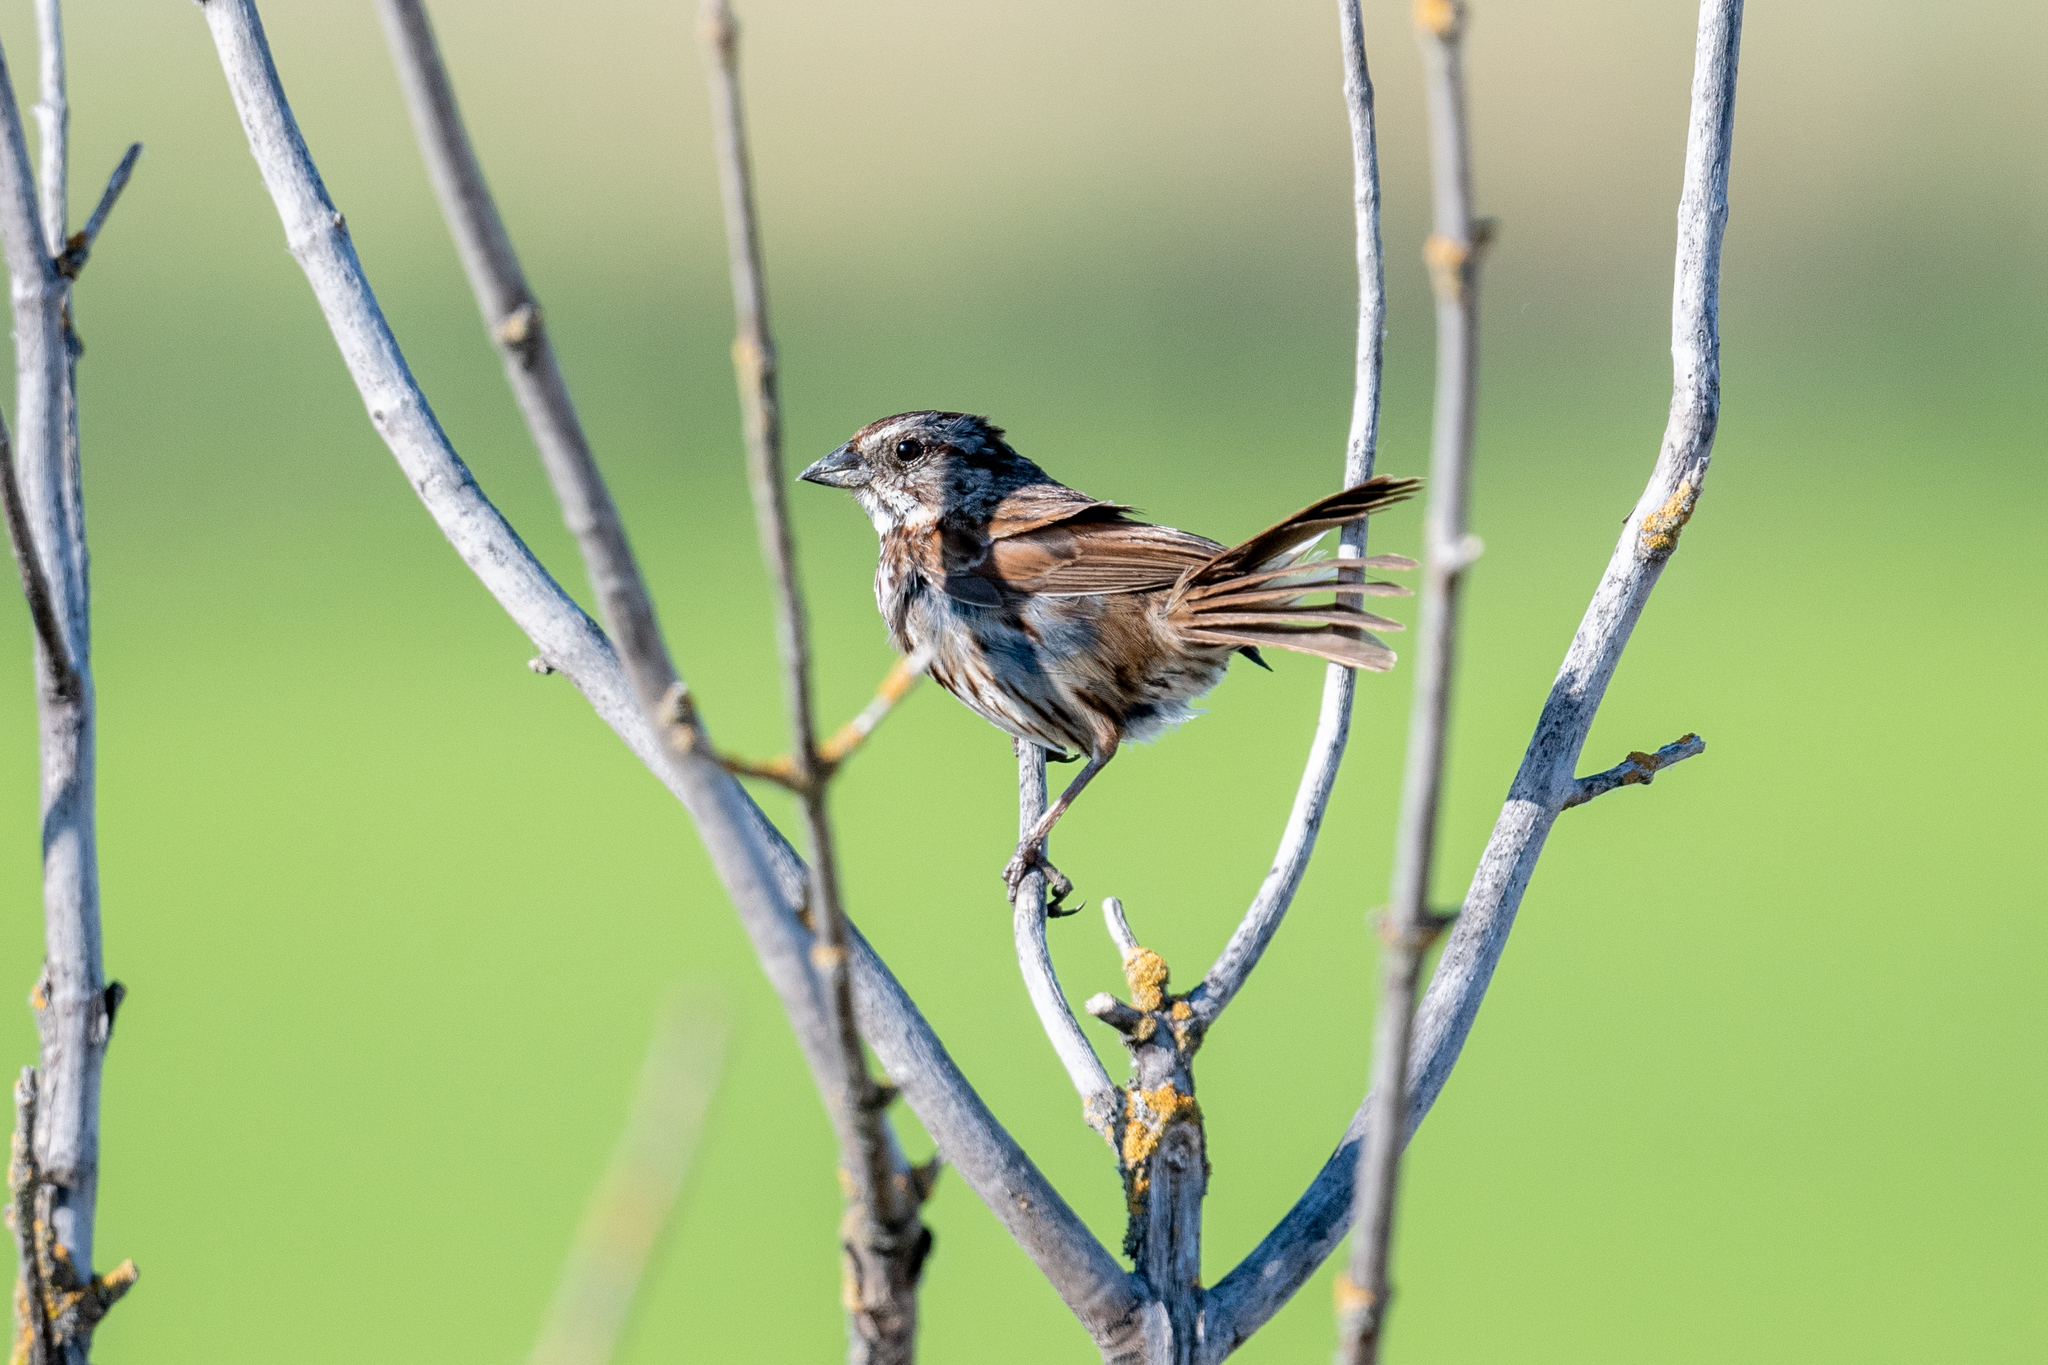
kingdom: Animalia
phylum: Chordata
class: Aves
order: Passeriformes
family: Passerellidae
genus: Melospiza
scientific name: Melospiza melodia
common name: Song sparrow
